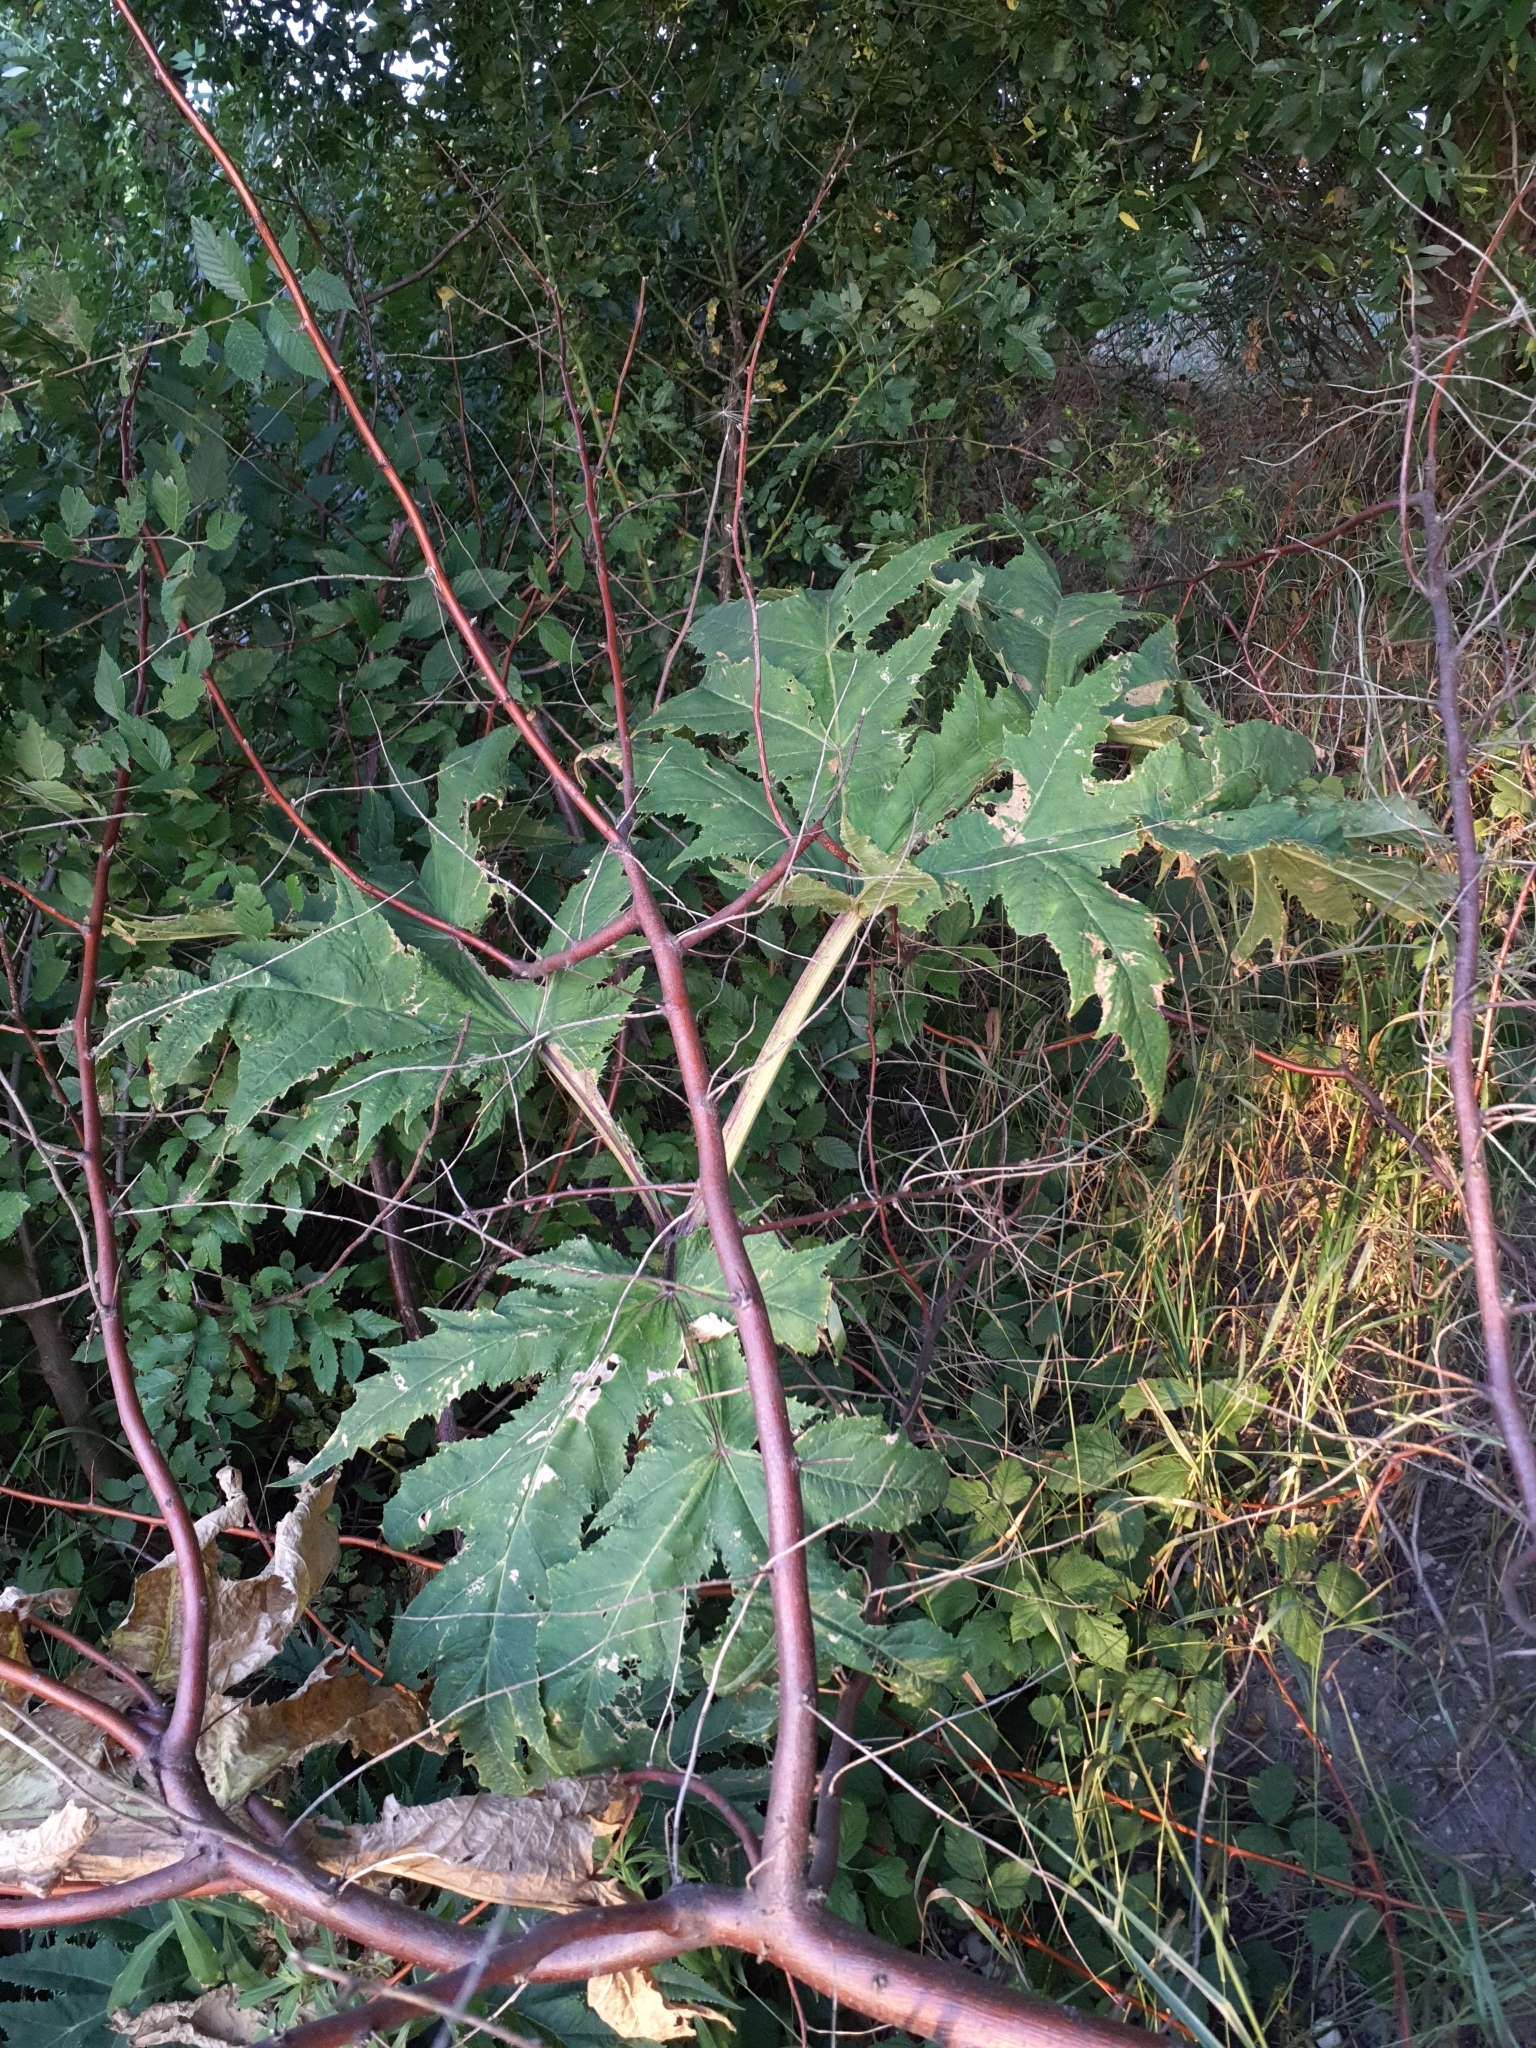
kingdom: Plantae
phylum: Tracheophyta
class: Magnoliopsida
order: Apiales
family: Apiaceae
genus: Heracleum
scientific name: Heracleum mantegazzianum
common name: Giant hogweed
